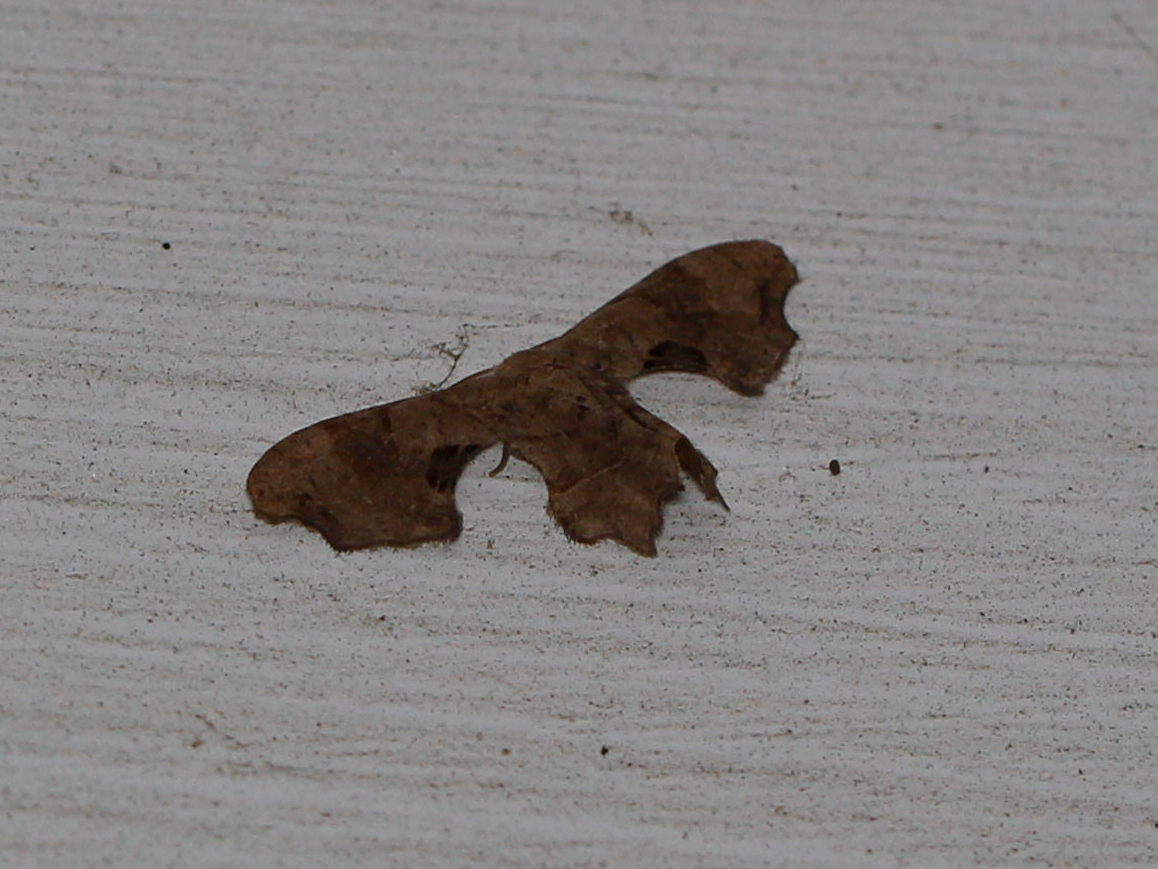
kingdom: Animalia
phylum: Arthropoda
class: Insecta
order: Lepidoptera
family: Uraniidae
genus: Epiplema
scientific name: Epiplema Calledapteryx dryopterata
